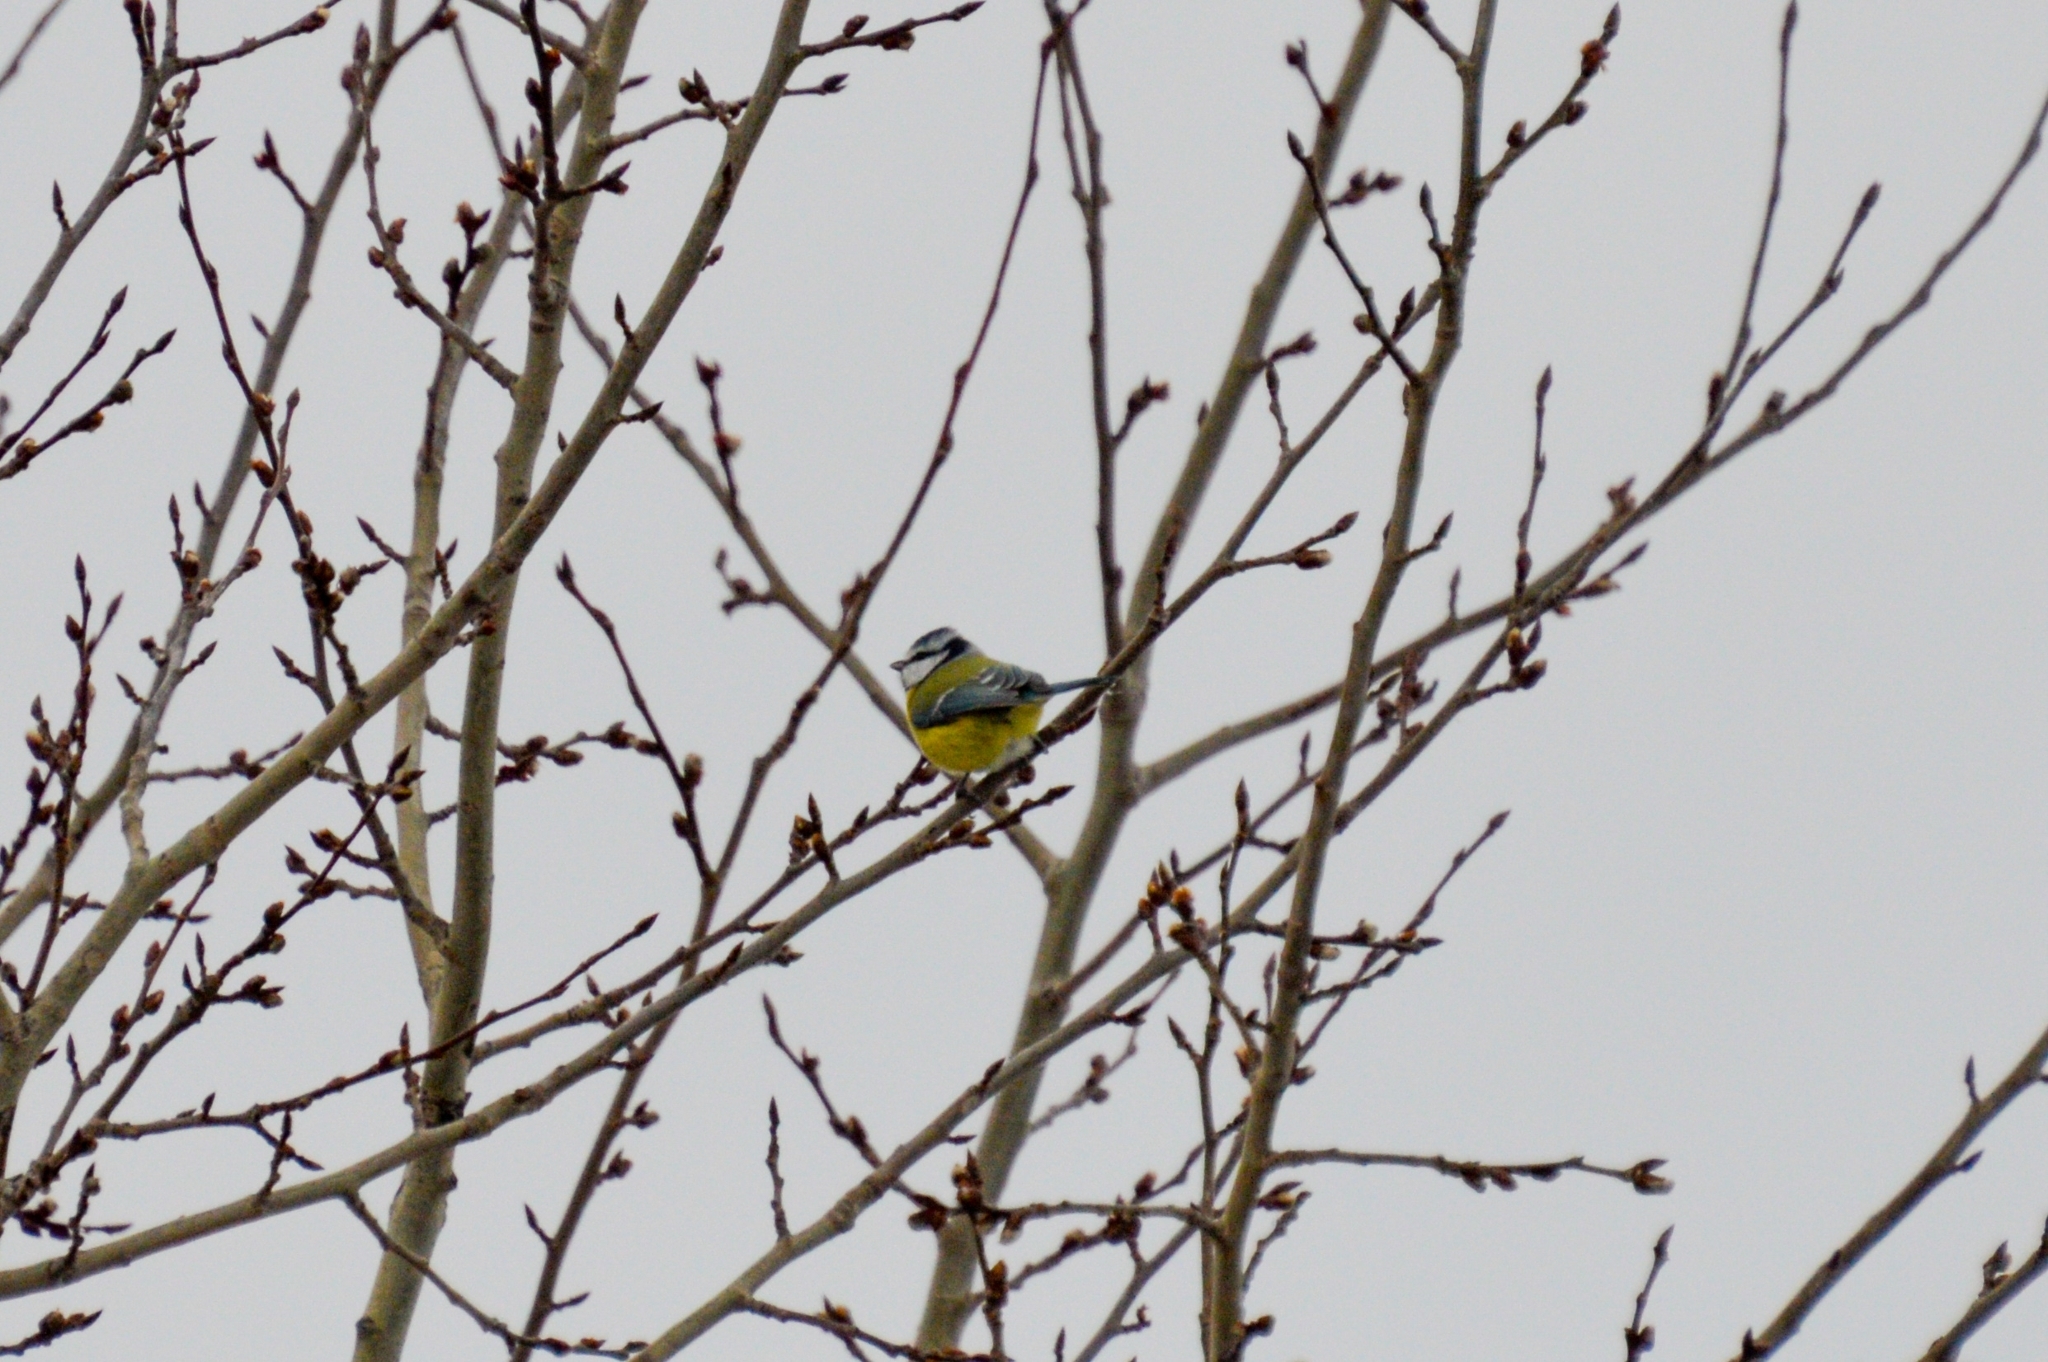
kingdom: Animalia
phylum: Chordata
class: Aves
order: Passeriformes
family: Paridae
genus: Cyanistes
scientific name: Cyanistes caeruleus
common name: Eurasian blue tit
